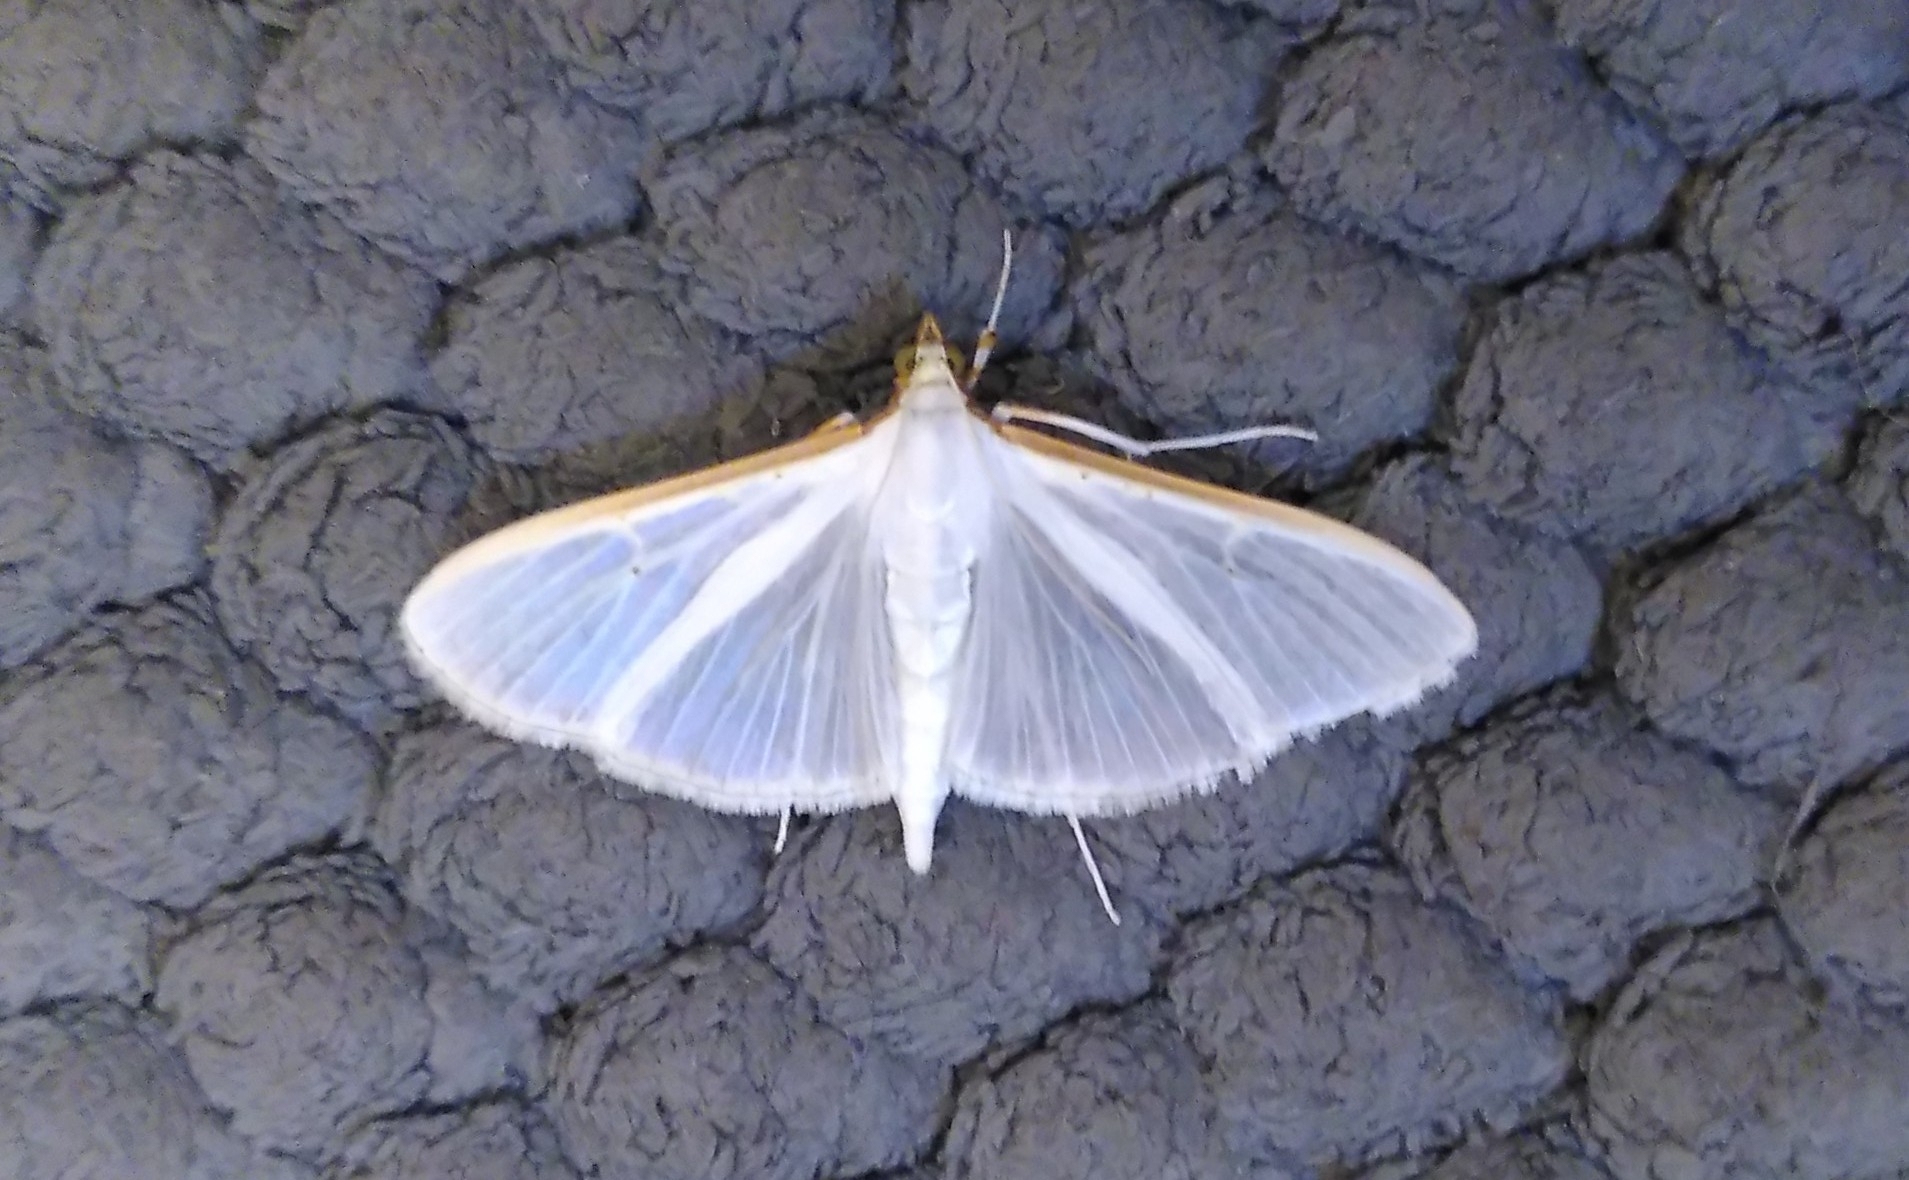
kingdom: Animalia
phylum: Arthropoda
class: Insecta
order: Lepidoptera
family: Crambidae
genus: Palpita
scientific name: Palpita vitrealis
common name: Olive-tree pearl
